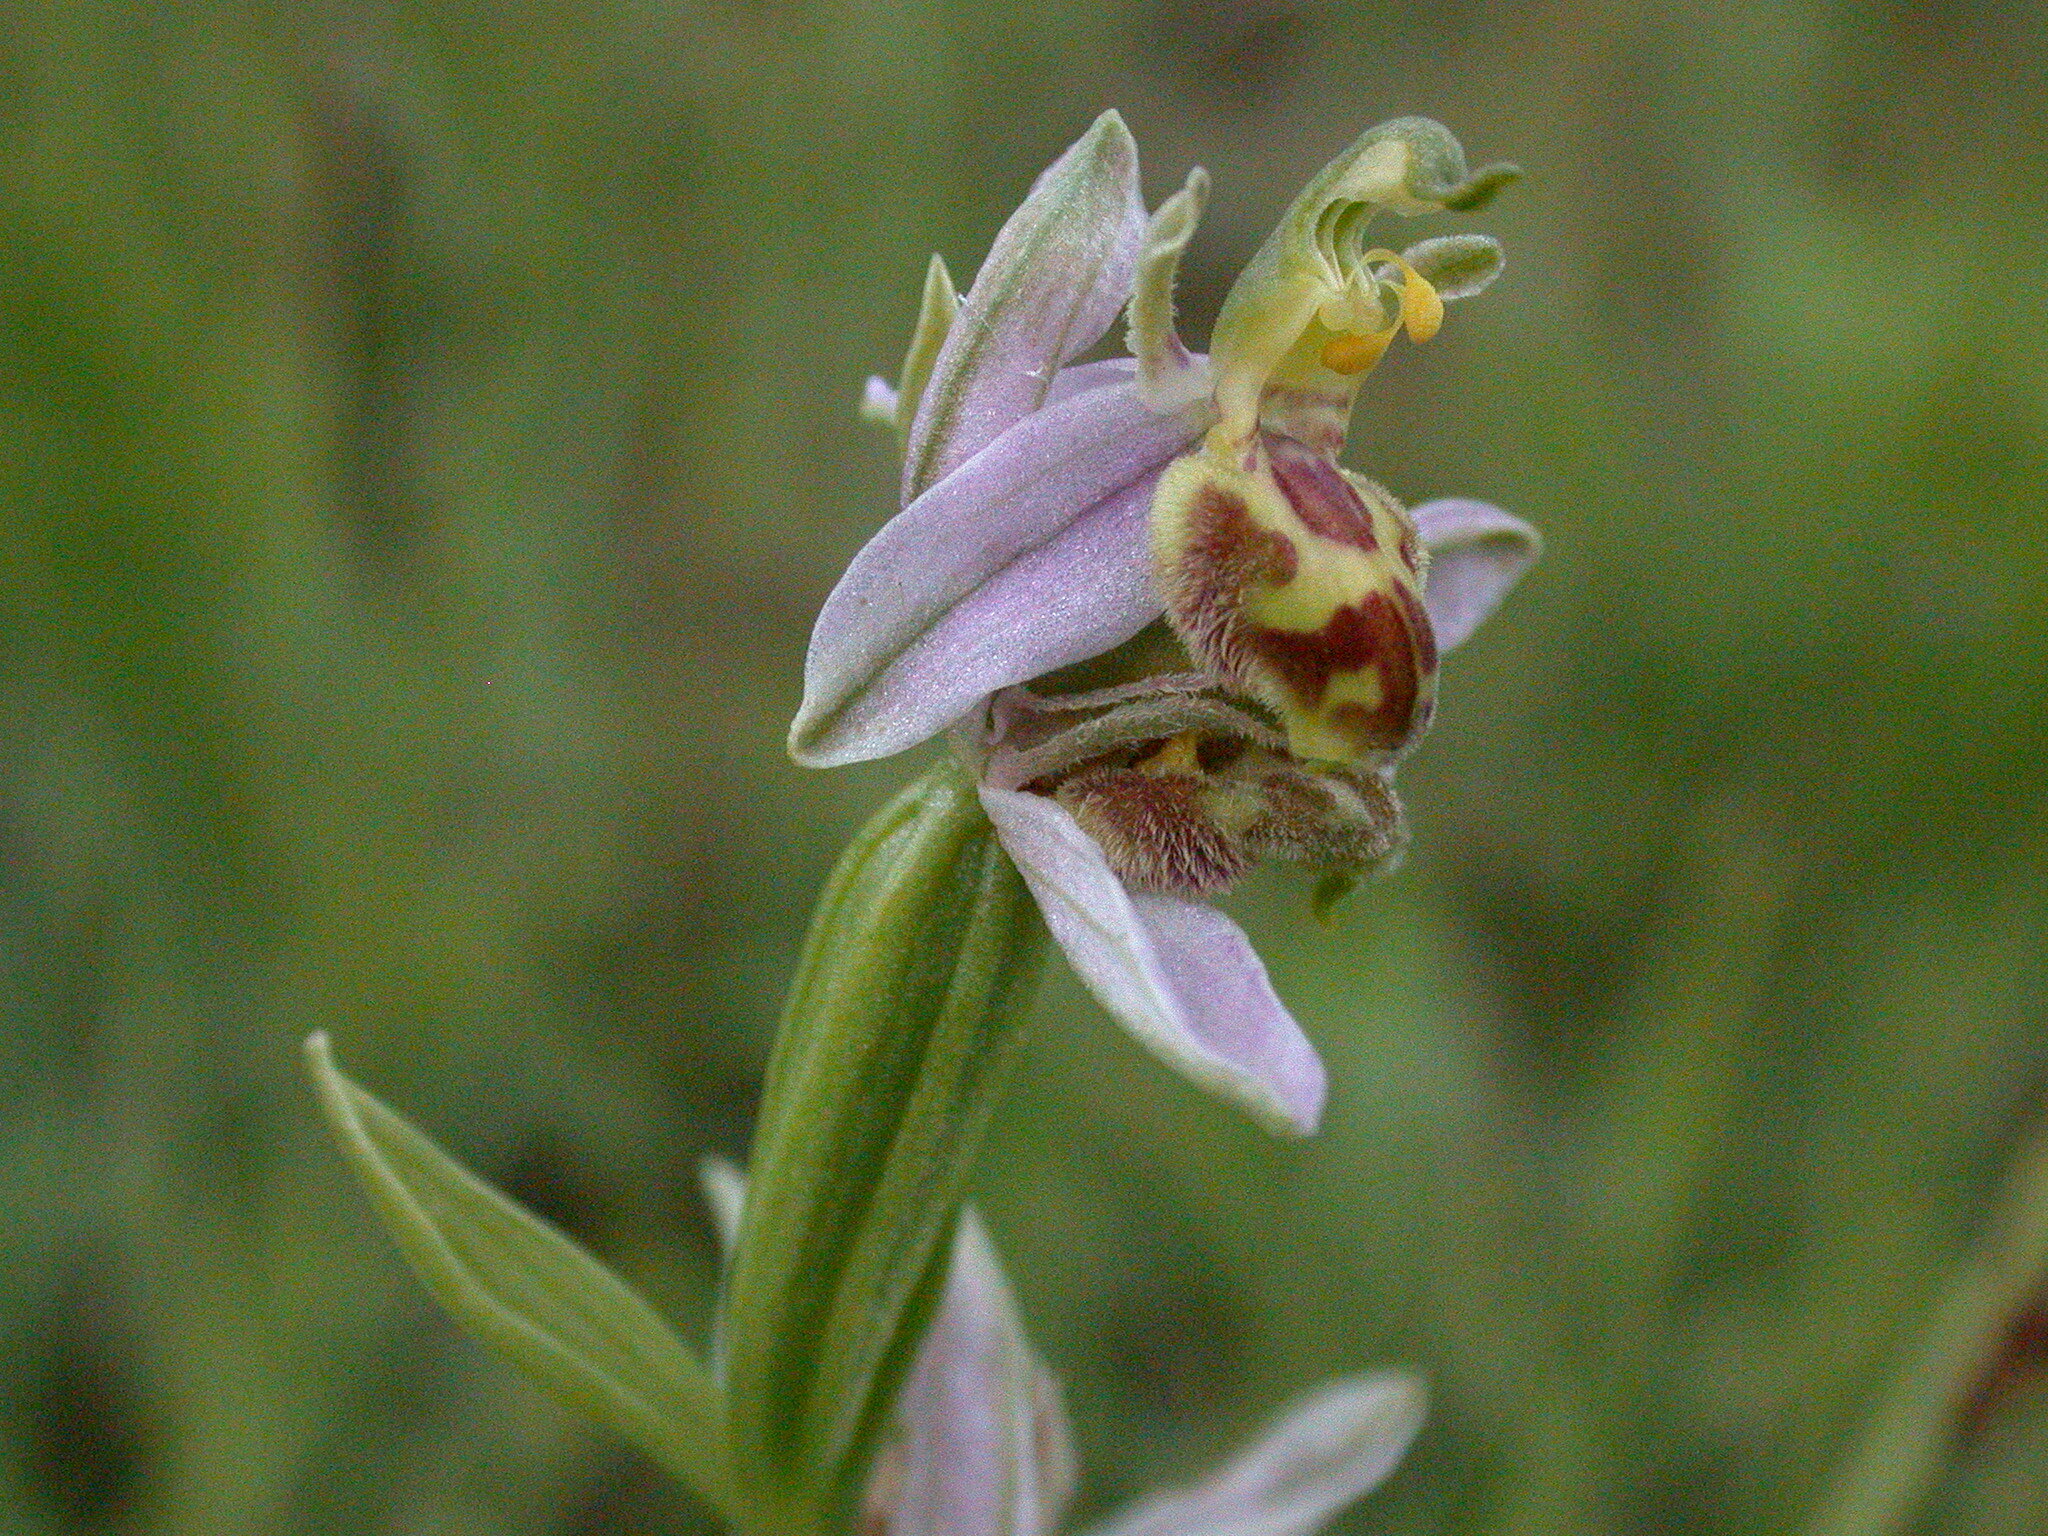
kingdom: Plantae
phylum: Tracheophyta
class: Liliopsida
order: Asparagales
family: Orchidaceae
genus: Ophrys
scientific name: Ophrys apifera
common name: Bee orchid
